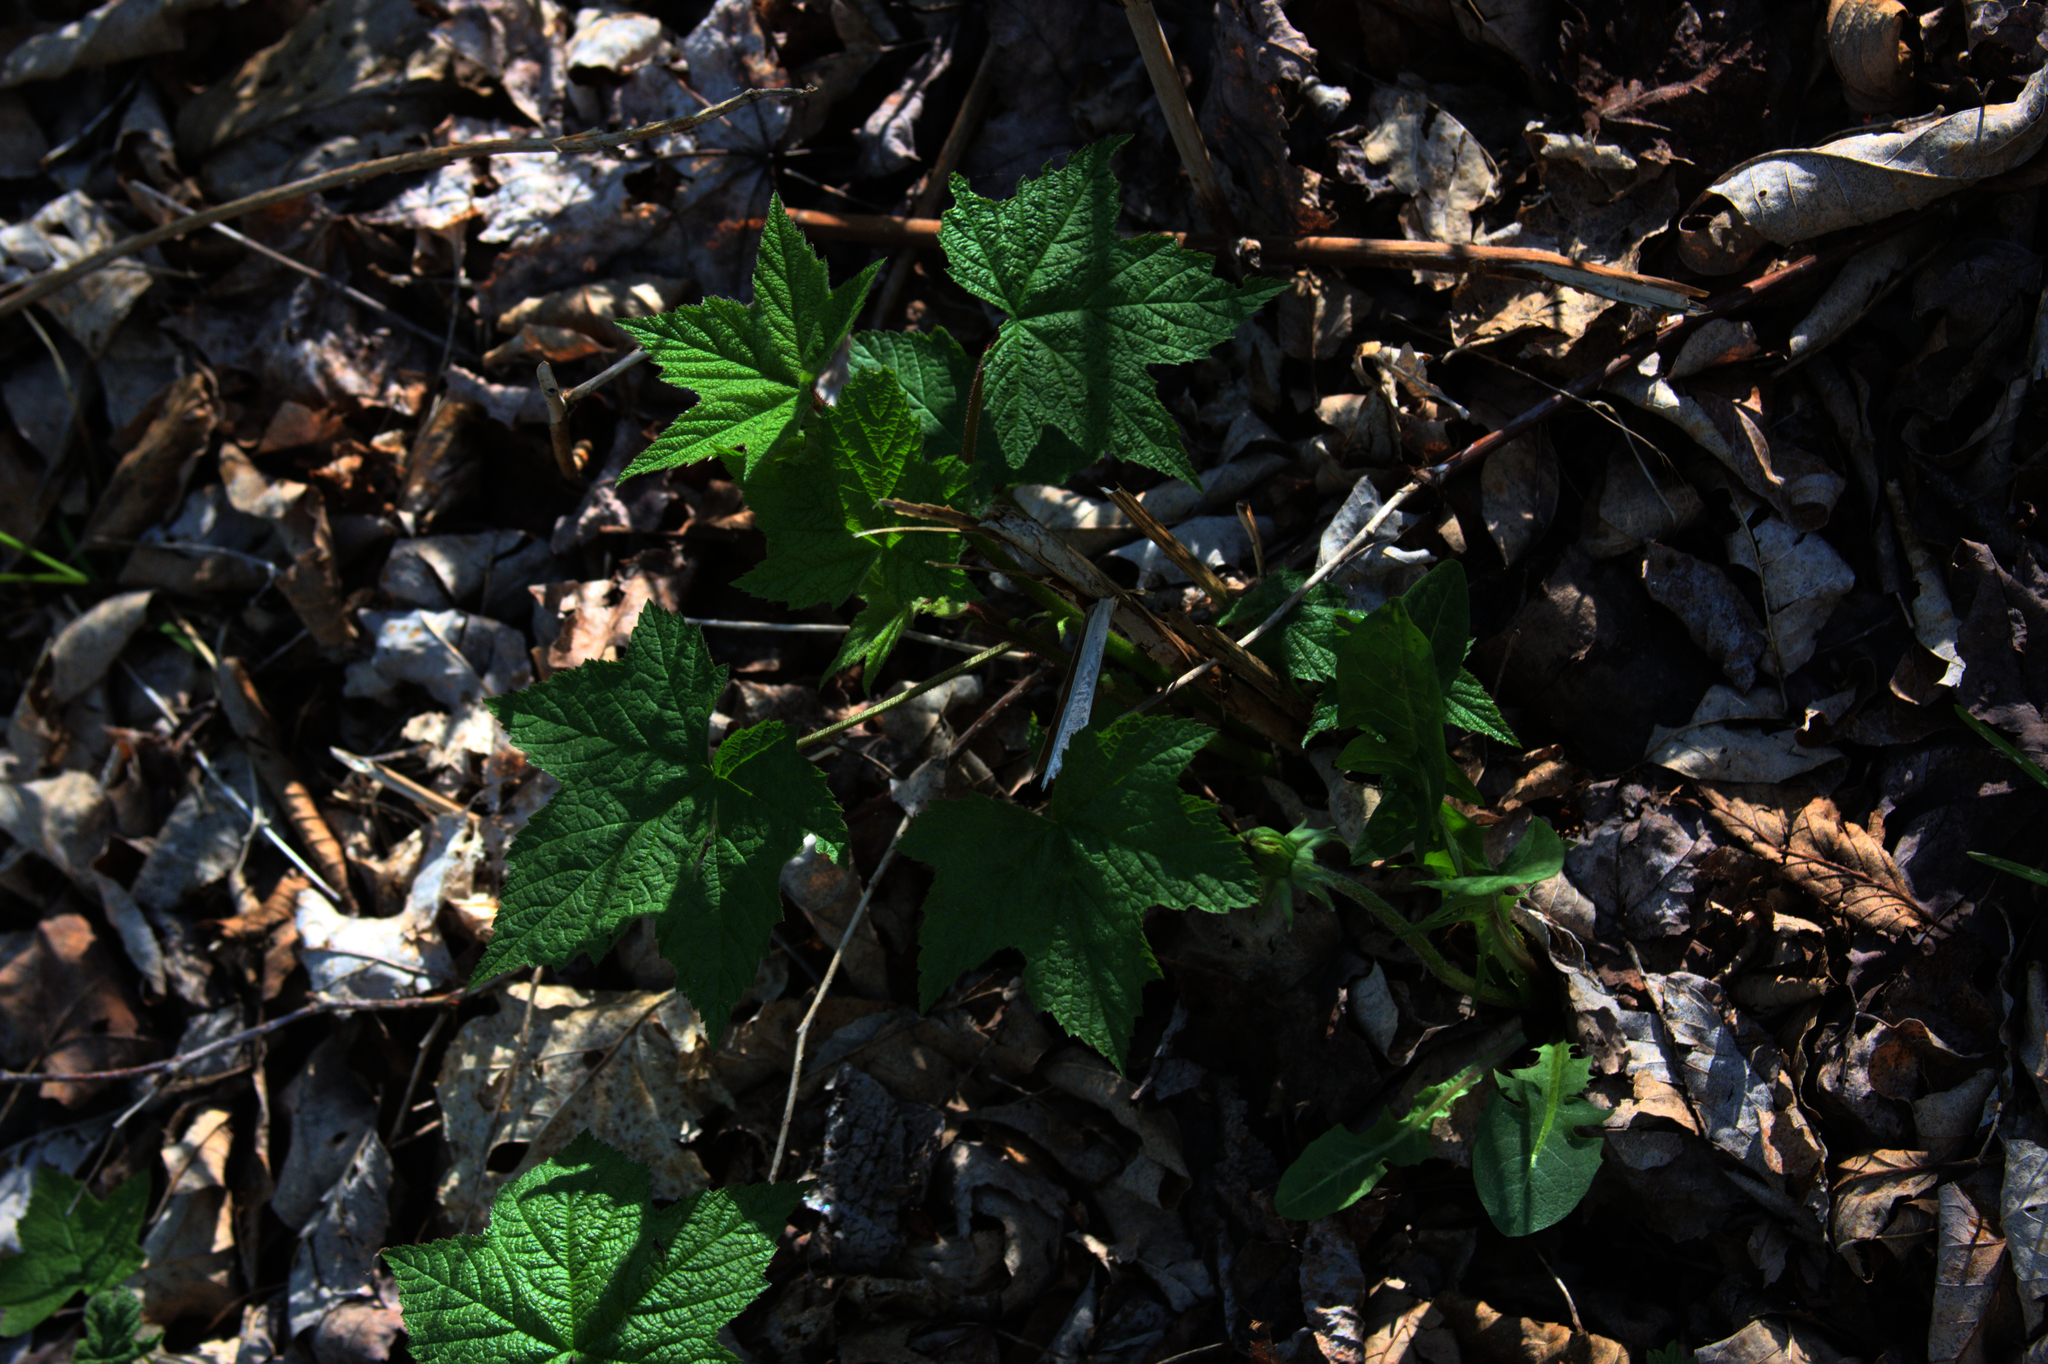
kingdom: Plantae
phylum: Tracheophyta
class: Magnoliopsida
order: Rosales
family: Rosaceae
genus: Rubus
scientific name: Rubus odoratus
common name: Purple-flowered raspberry
